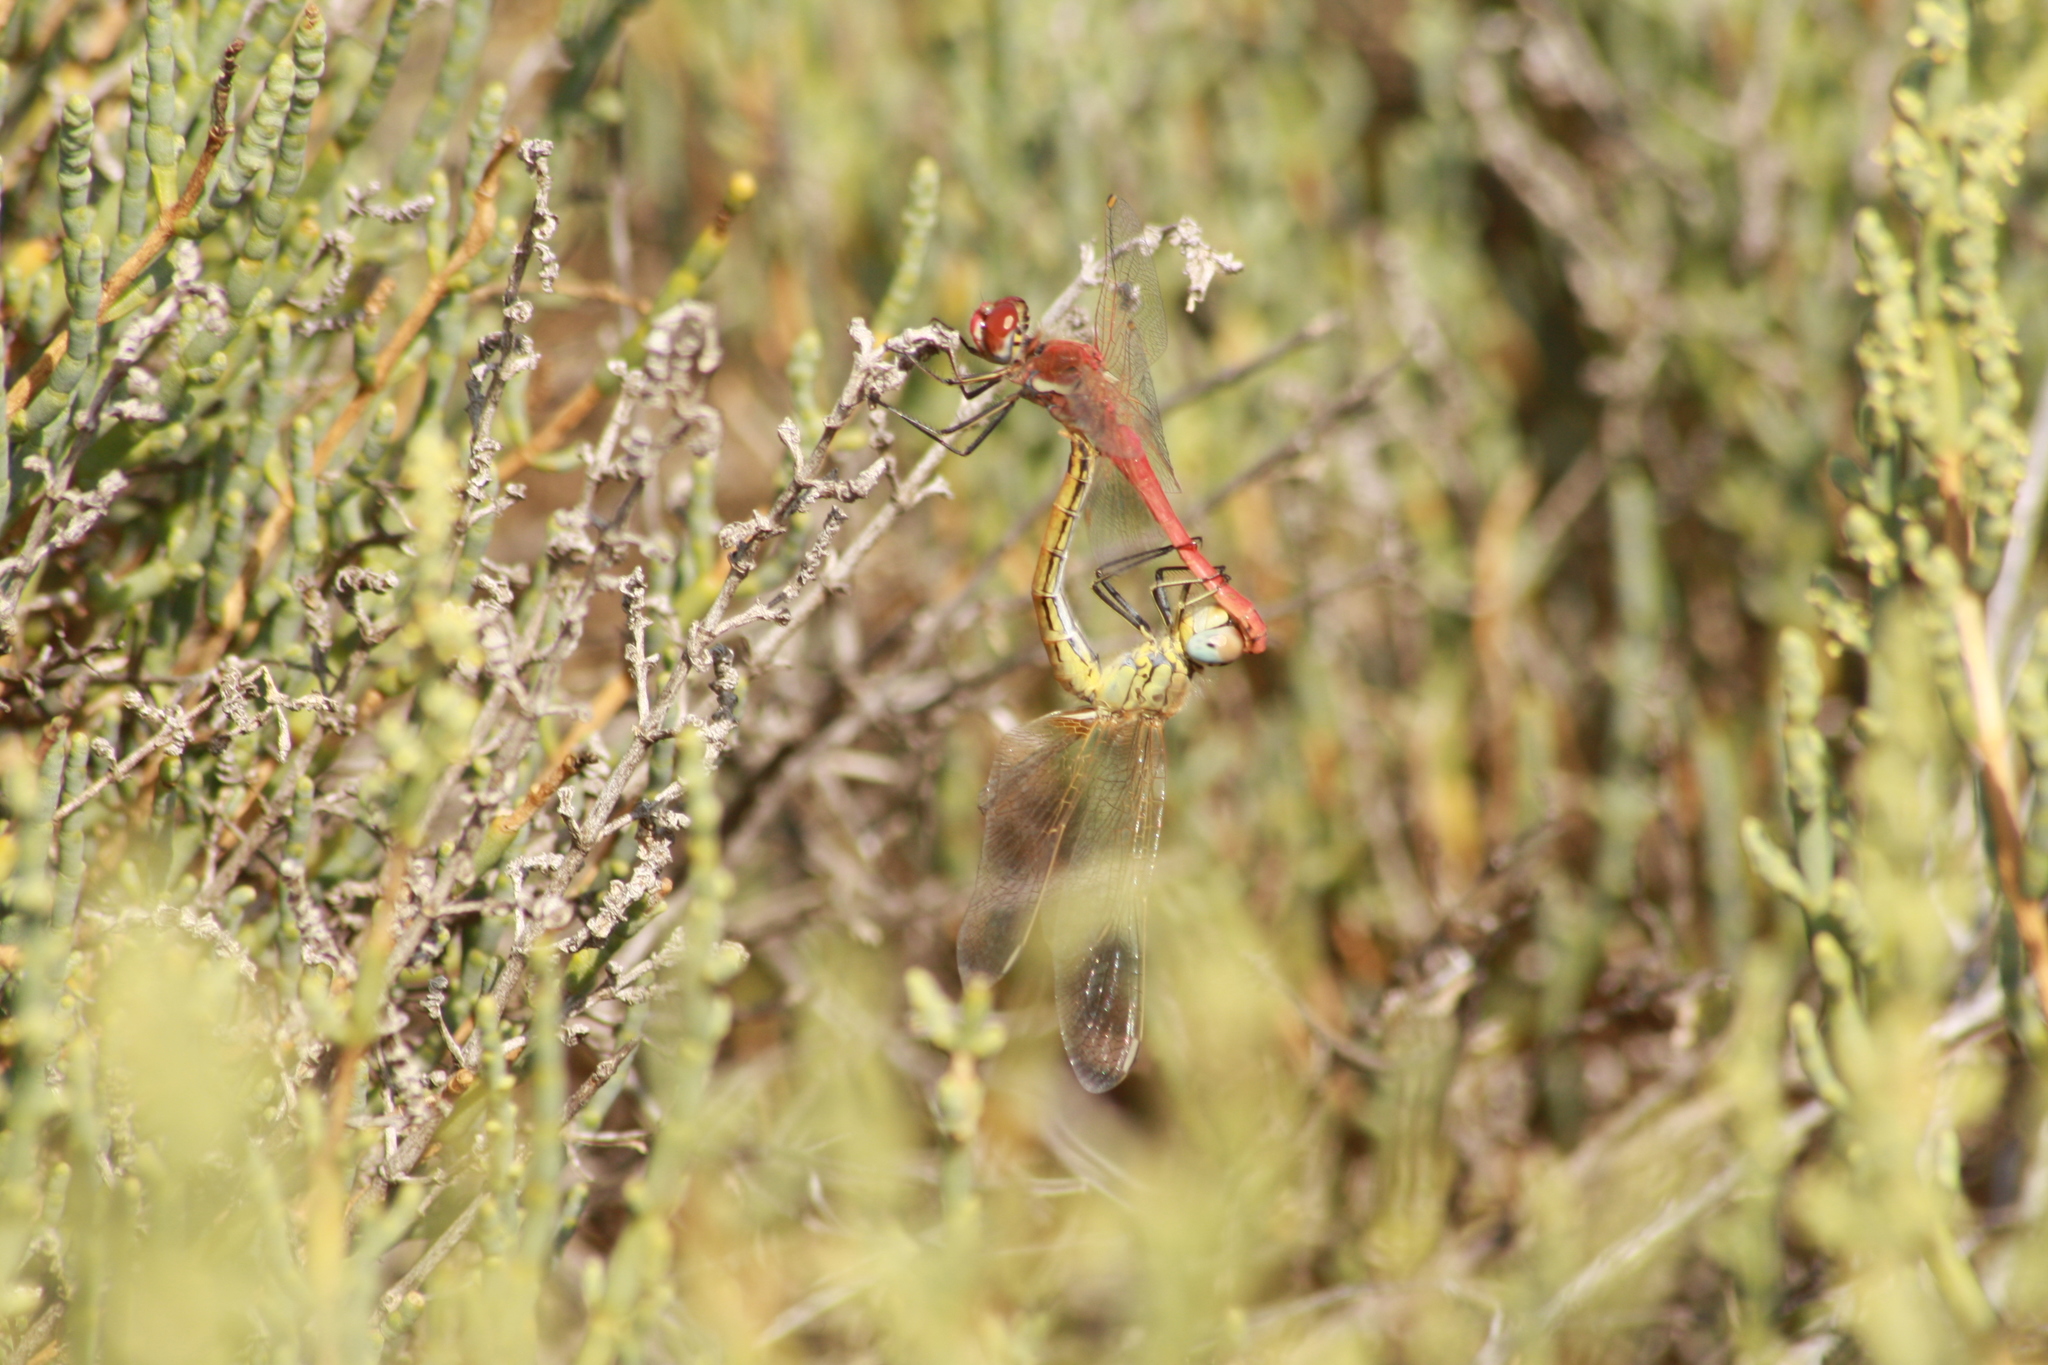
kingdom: Animalia
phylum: Arthropoda
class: Insecta
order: Odonata
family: Libellulidae
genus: Sympetrum
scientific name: Sympetrum fonscolombii
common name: Red-veined darter
